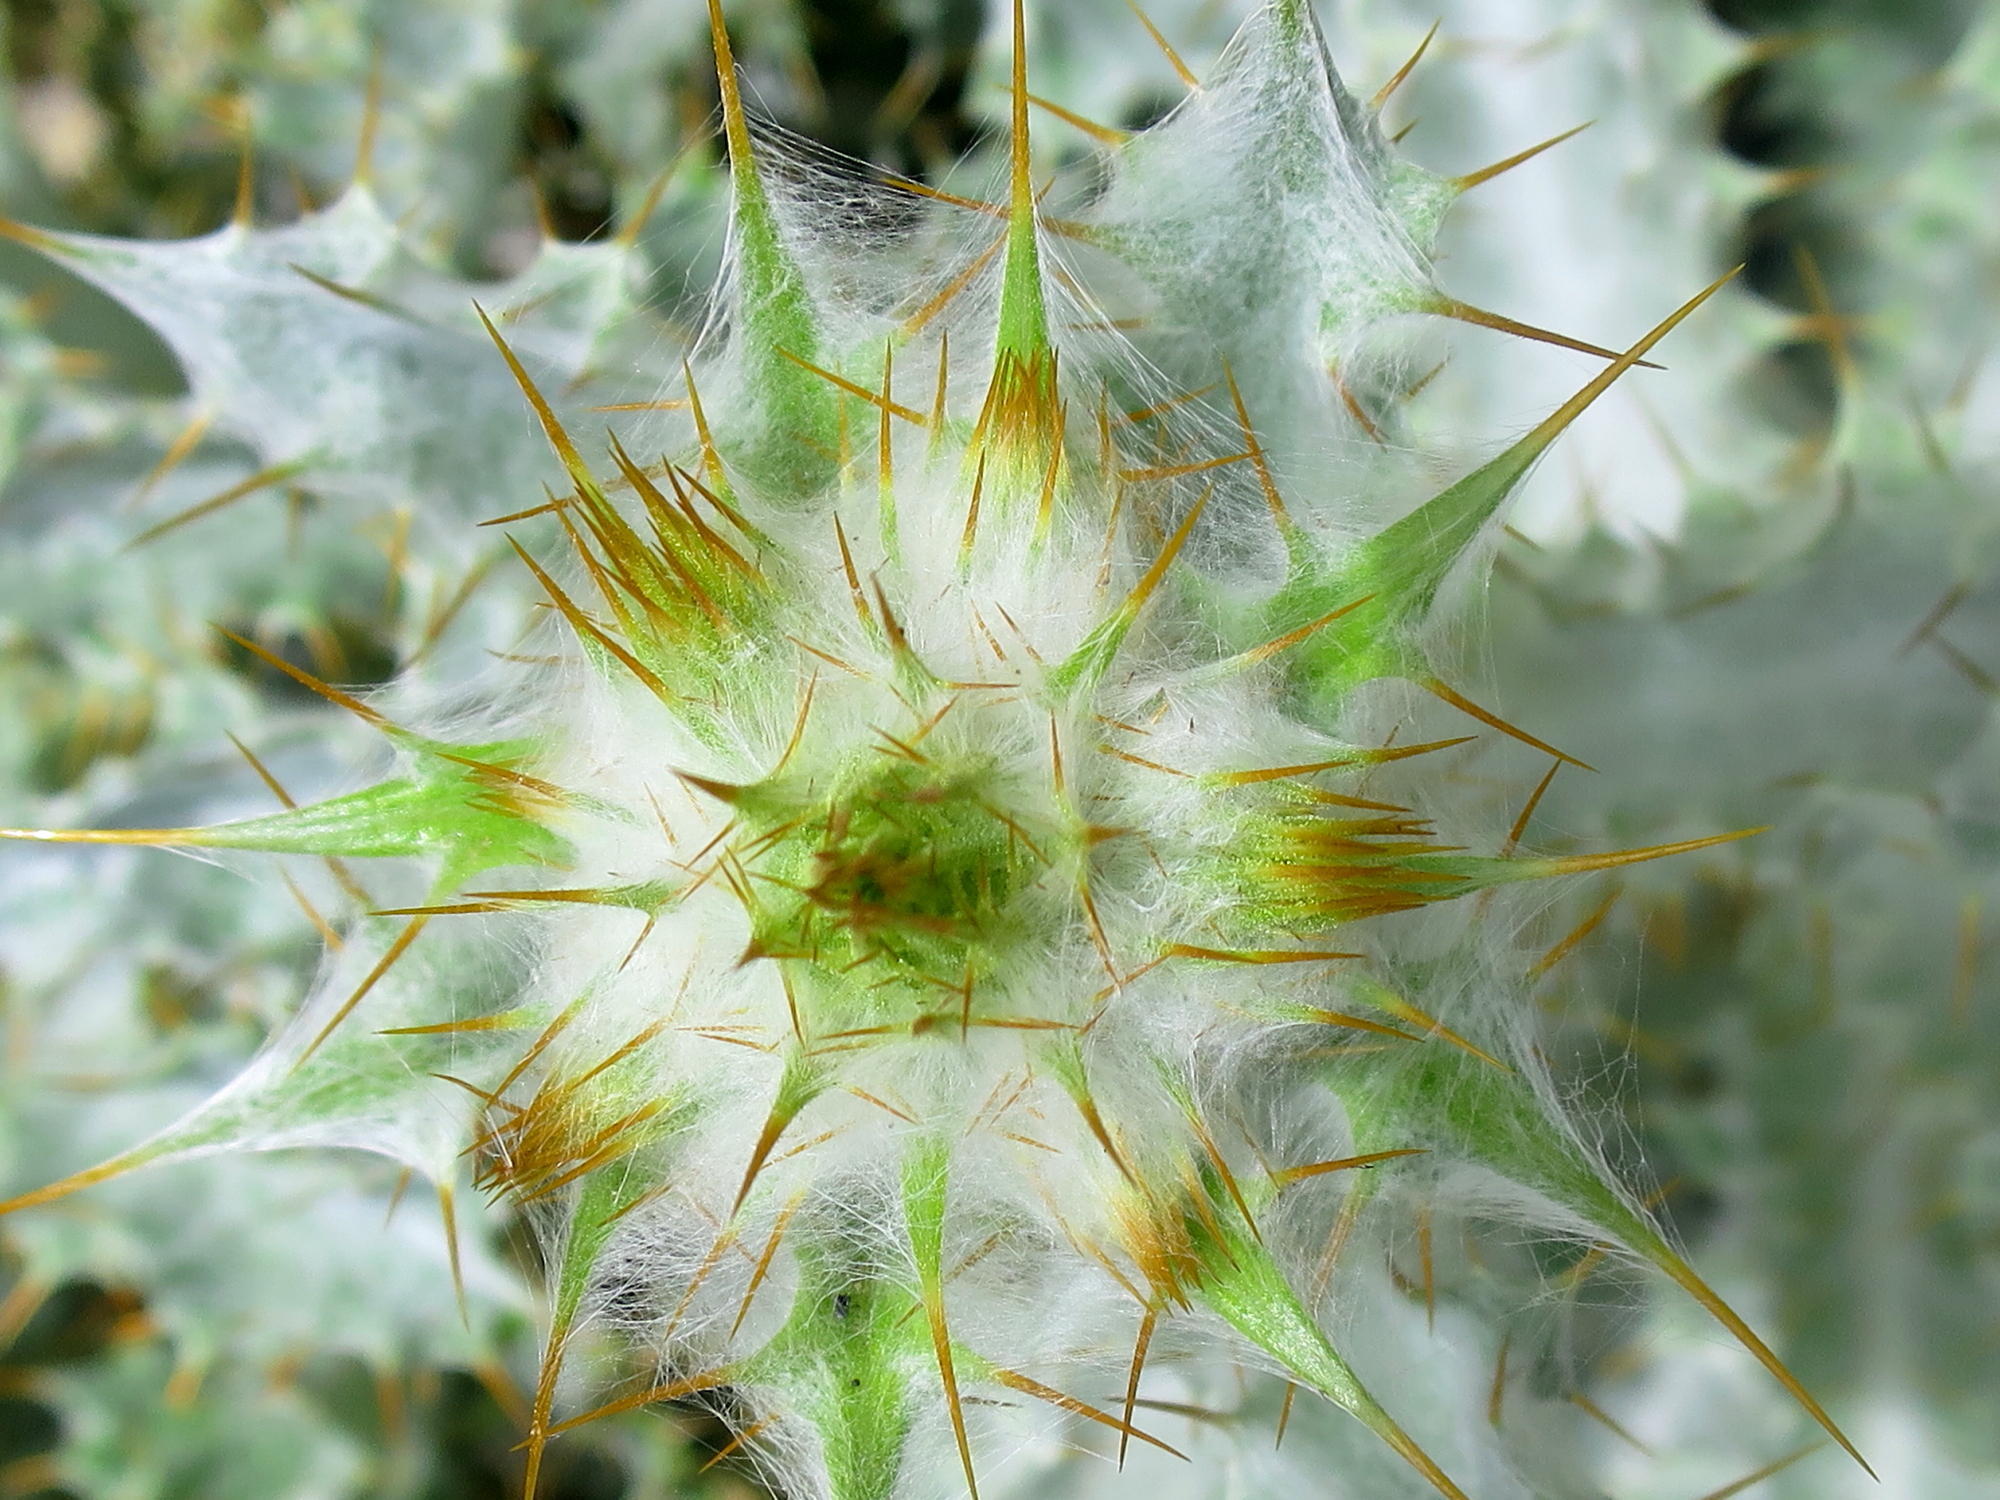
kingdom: Plantae
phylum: Tracheophyta
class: Magnoliopsida
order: Asterales
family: Asteraceae
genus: Berkheya
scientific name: Berkheya francisci
